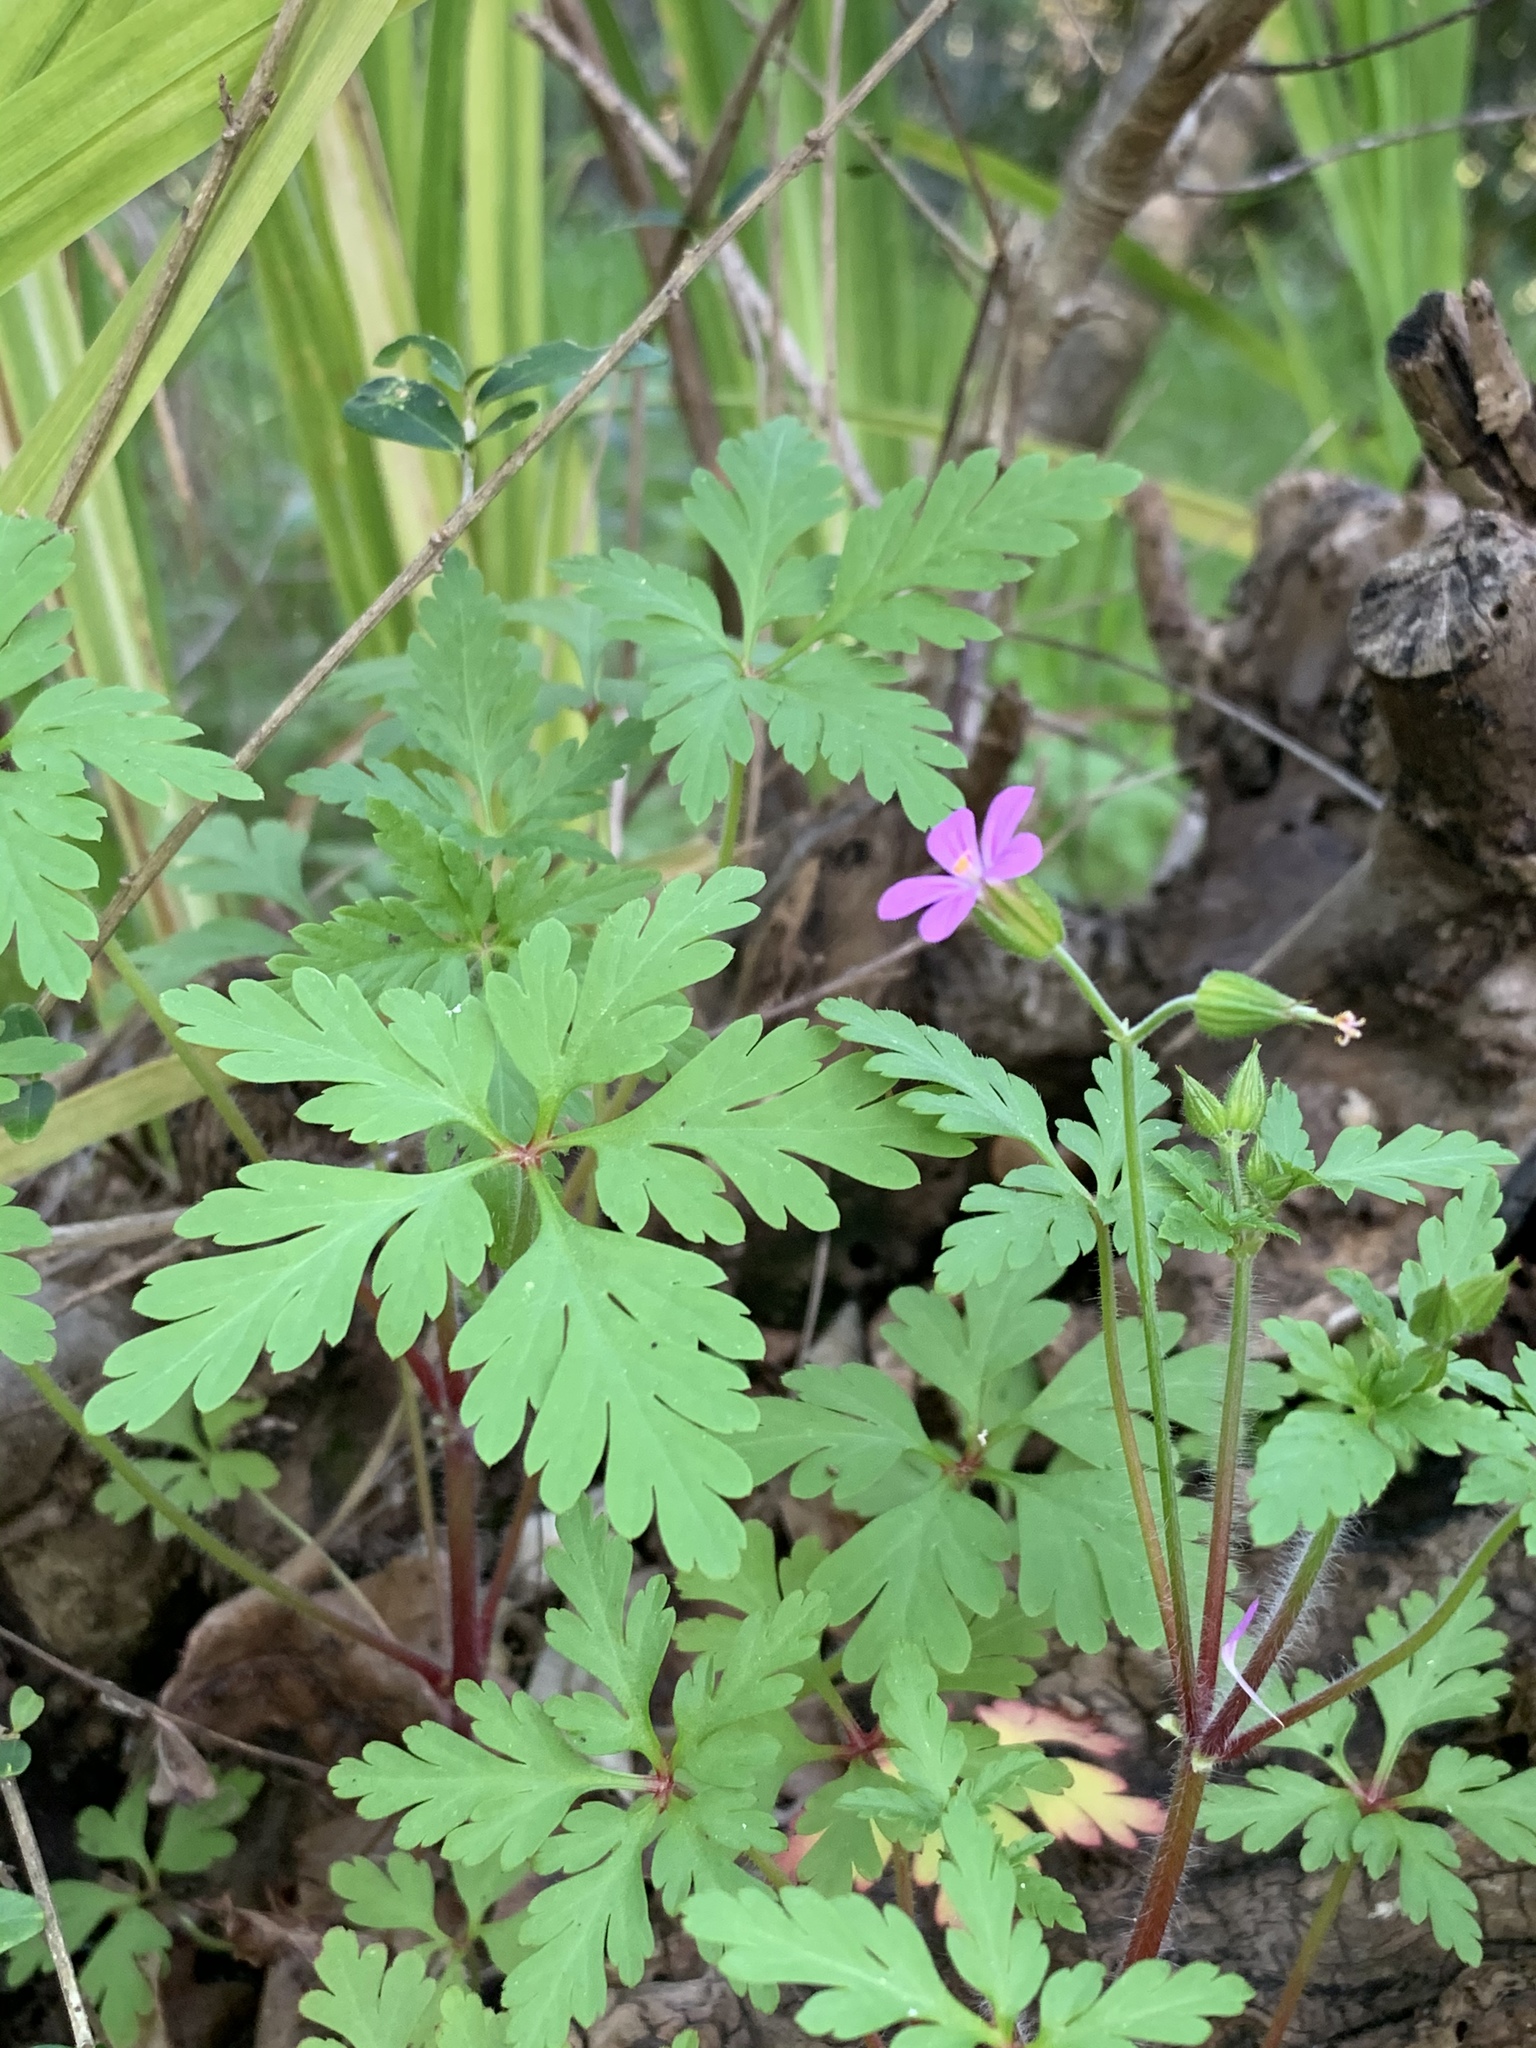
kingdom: Plantae
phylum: Tracheophyta
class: Magnoliopsida
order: Geraniales
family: Geraniaceae
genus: Geranium
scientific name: Geranium purpureum
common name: Little-robin
